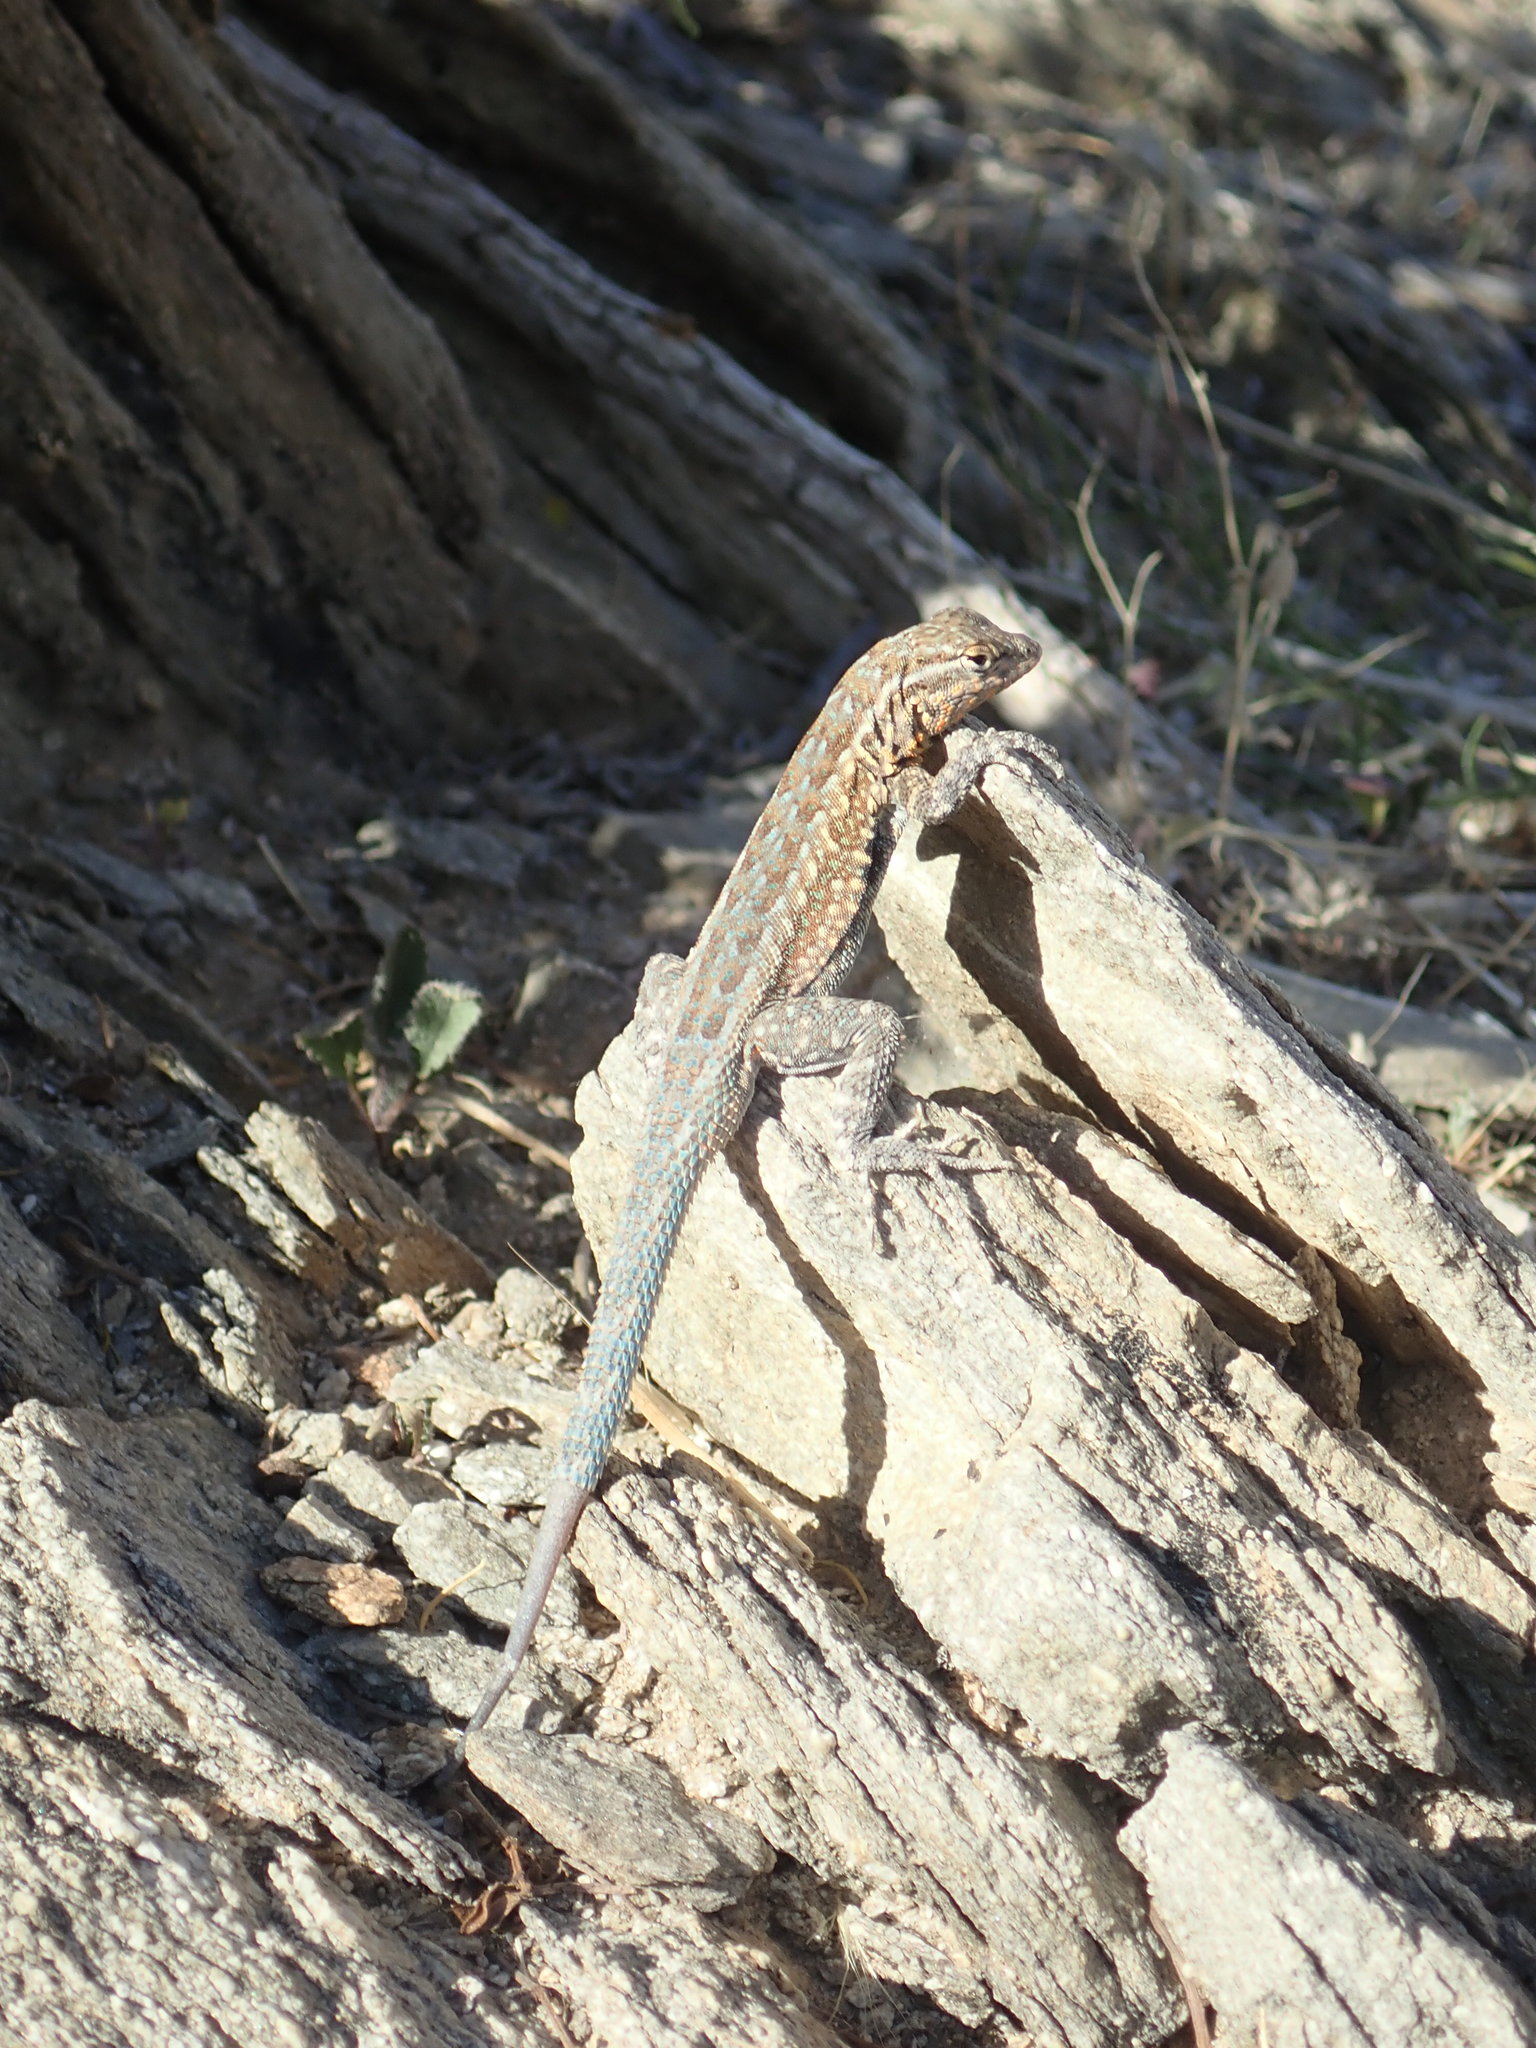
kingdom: Animalia
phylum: Chordata
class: Squamata
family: Phrynosomatidae
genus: Uta
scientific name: Uta stansburiana
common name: Side-blotched lizard
